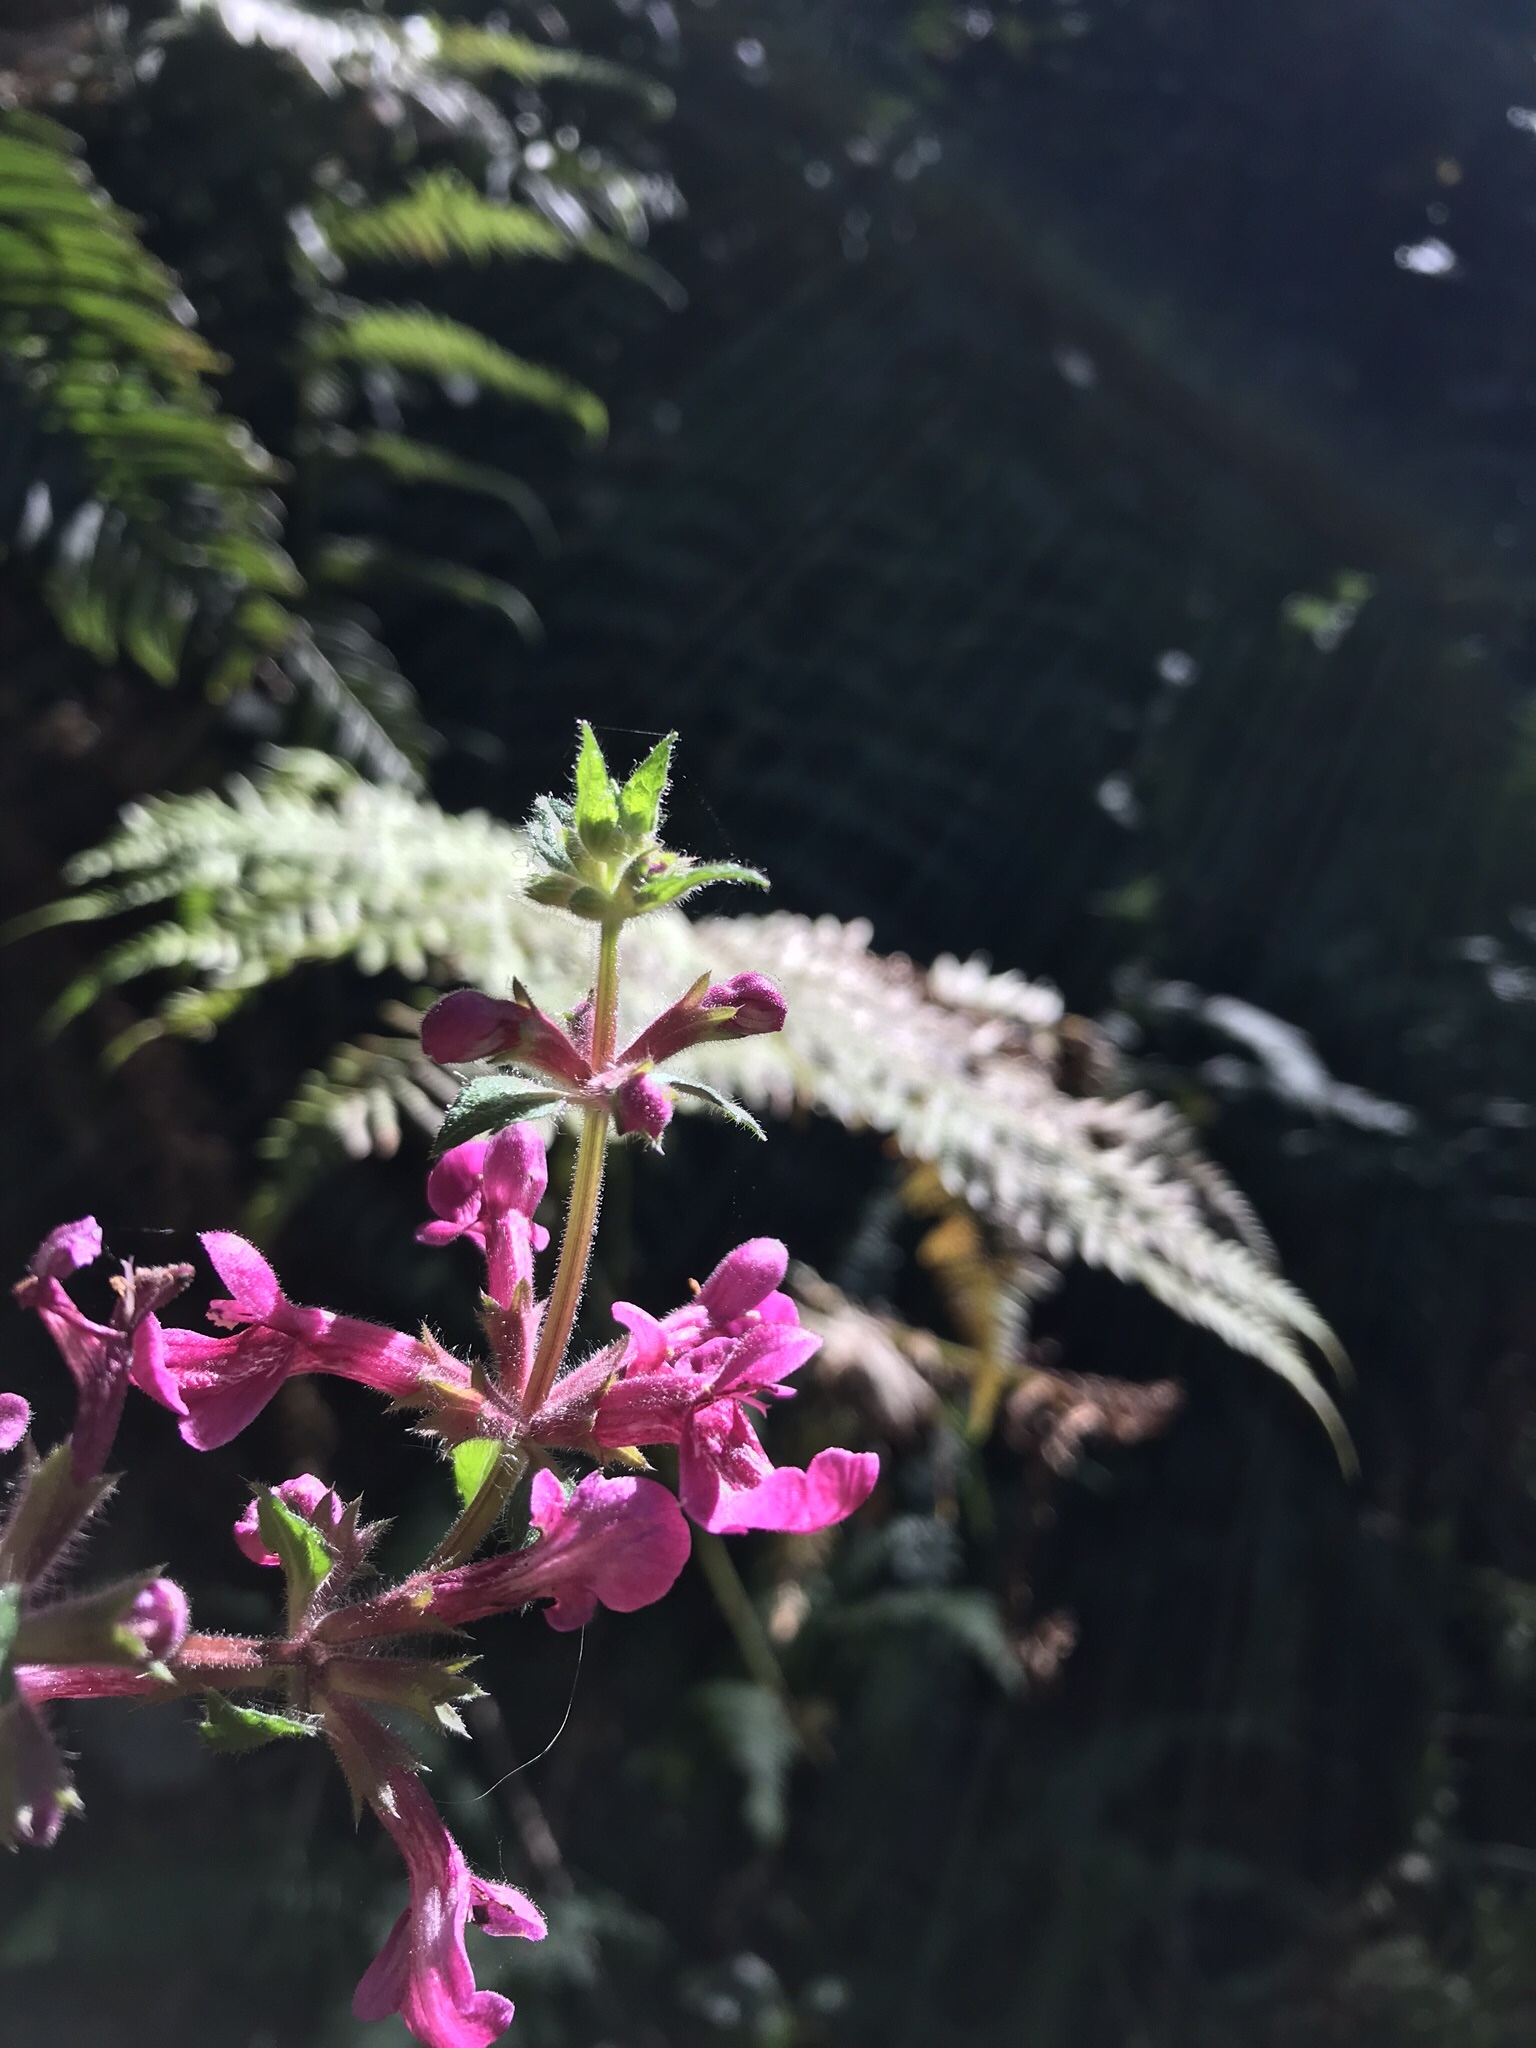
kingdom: Plantae
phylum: Tracheophyta
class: Magnoliopsida
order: Lamiales
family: Lamiaceae
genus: Stachys
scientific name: Stachys chamissonis
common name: Coastal hedge-nettle
